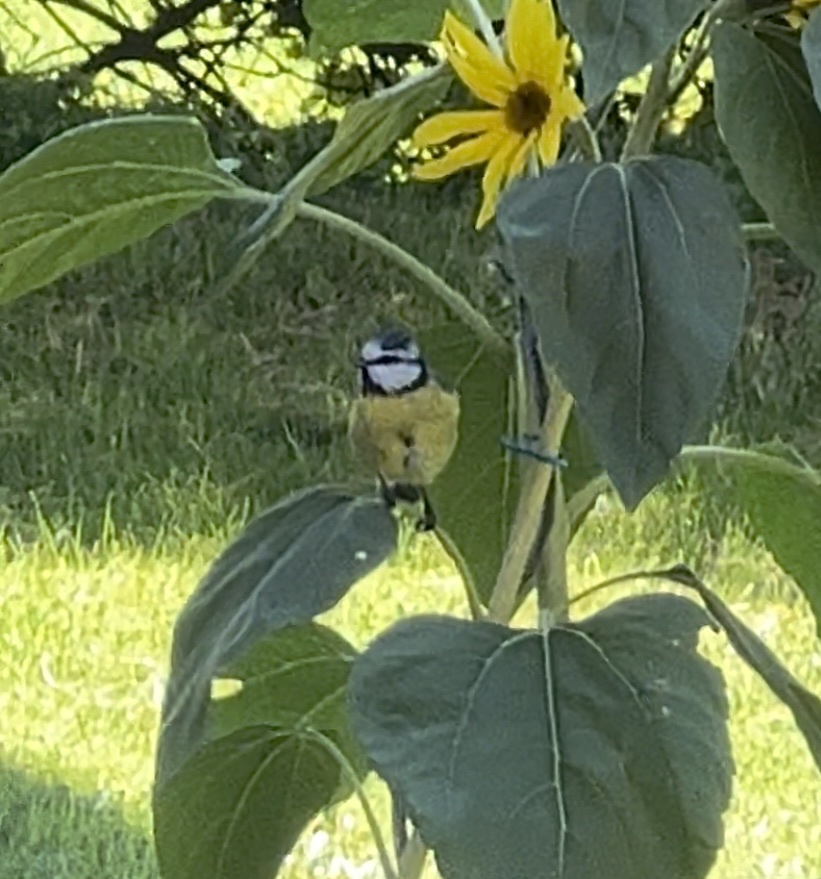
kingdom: Animalia
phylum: Chordata
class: Aves
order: Passeriformes
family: Paridae
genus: Cyanistes
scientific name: Cyanistes caeruleus
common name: Eurasian blue tit
